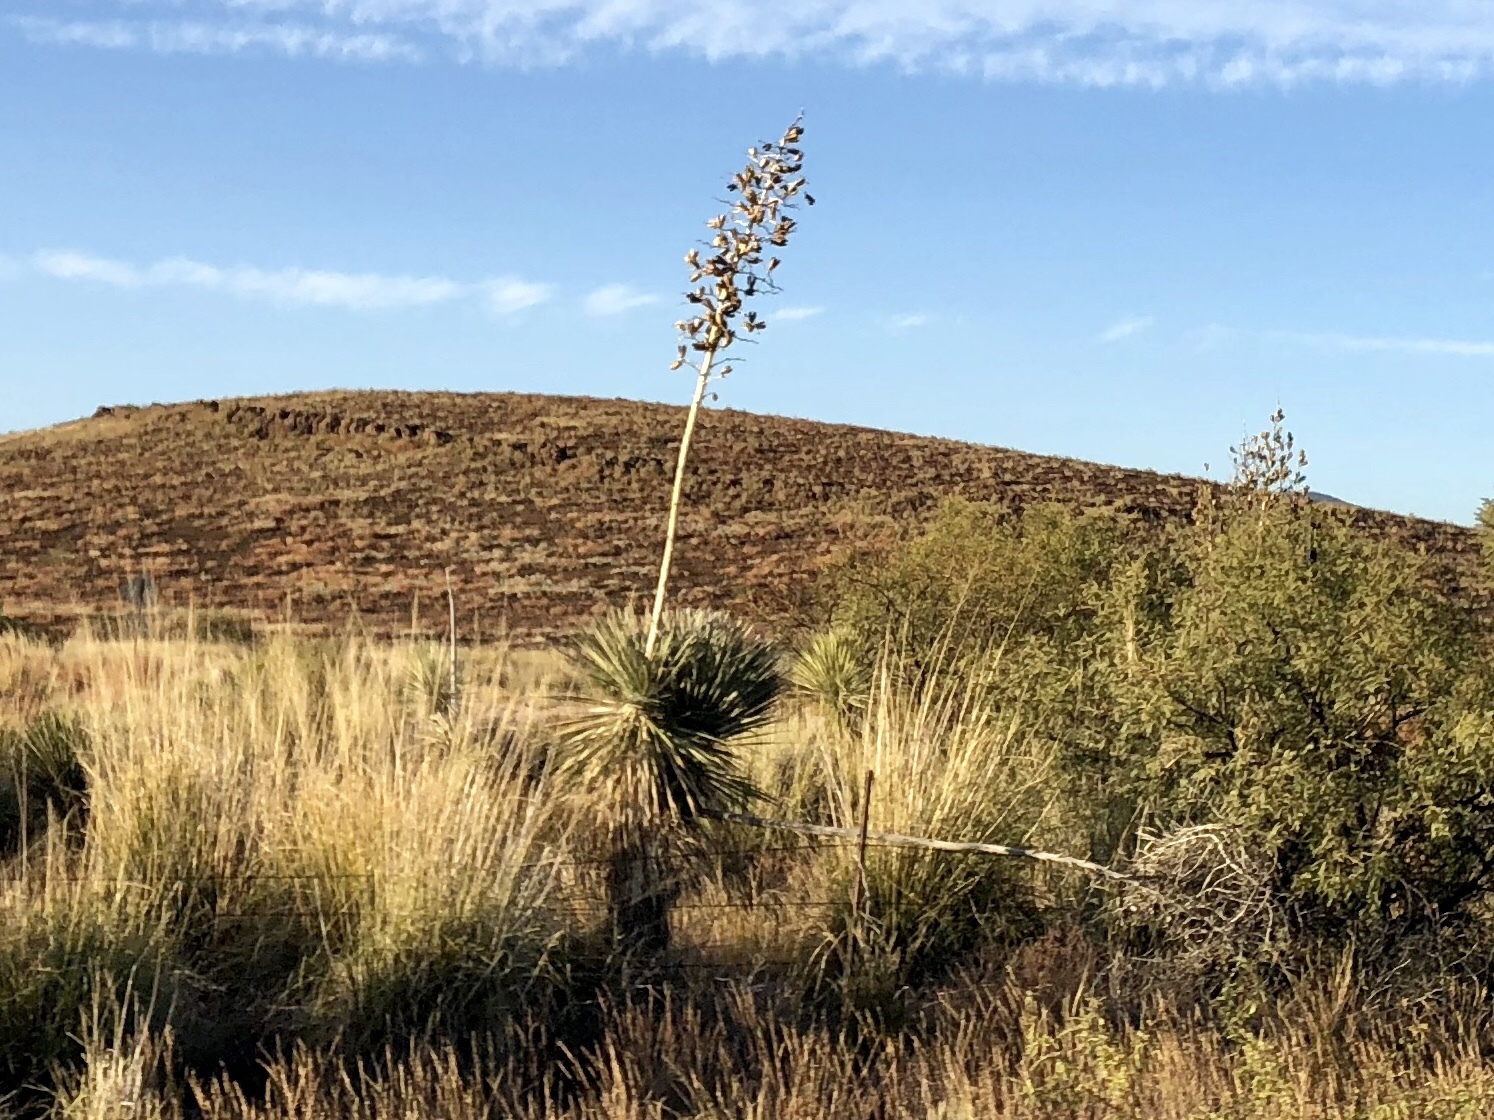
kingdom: Plantae
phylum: Tracheophyta
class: Liliopsida
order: Asparagales
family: Asparagaceae
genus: Yucca
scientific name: Yucca elata
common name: Palmella
